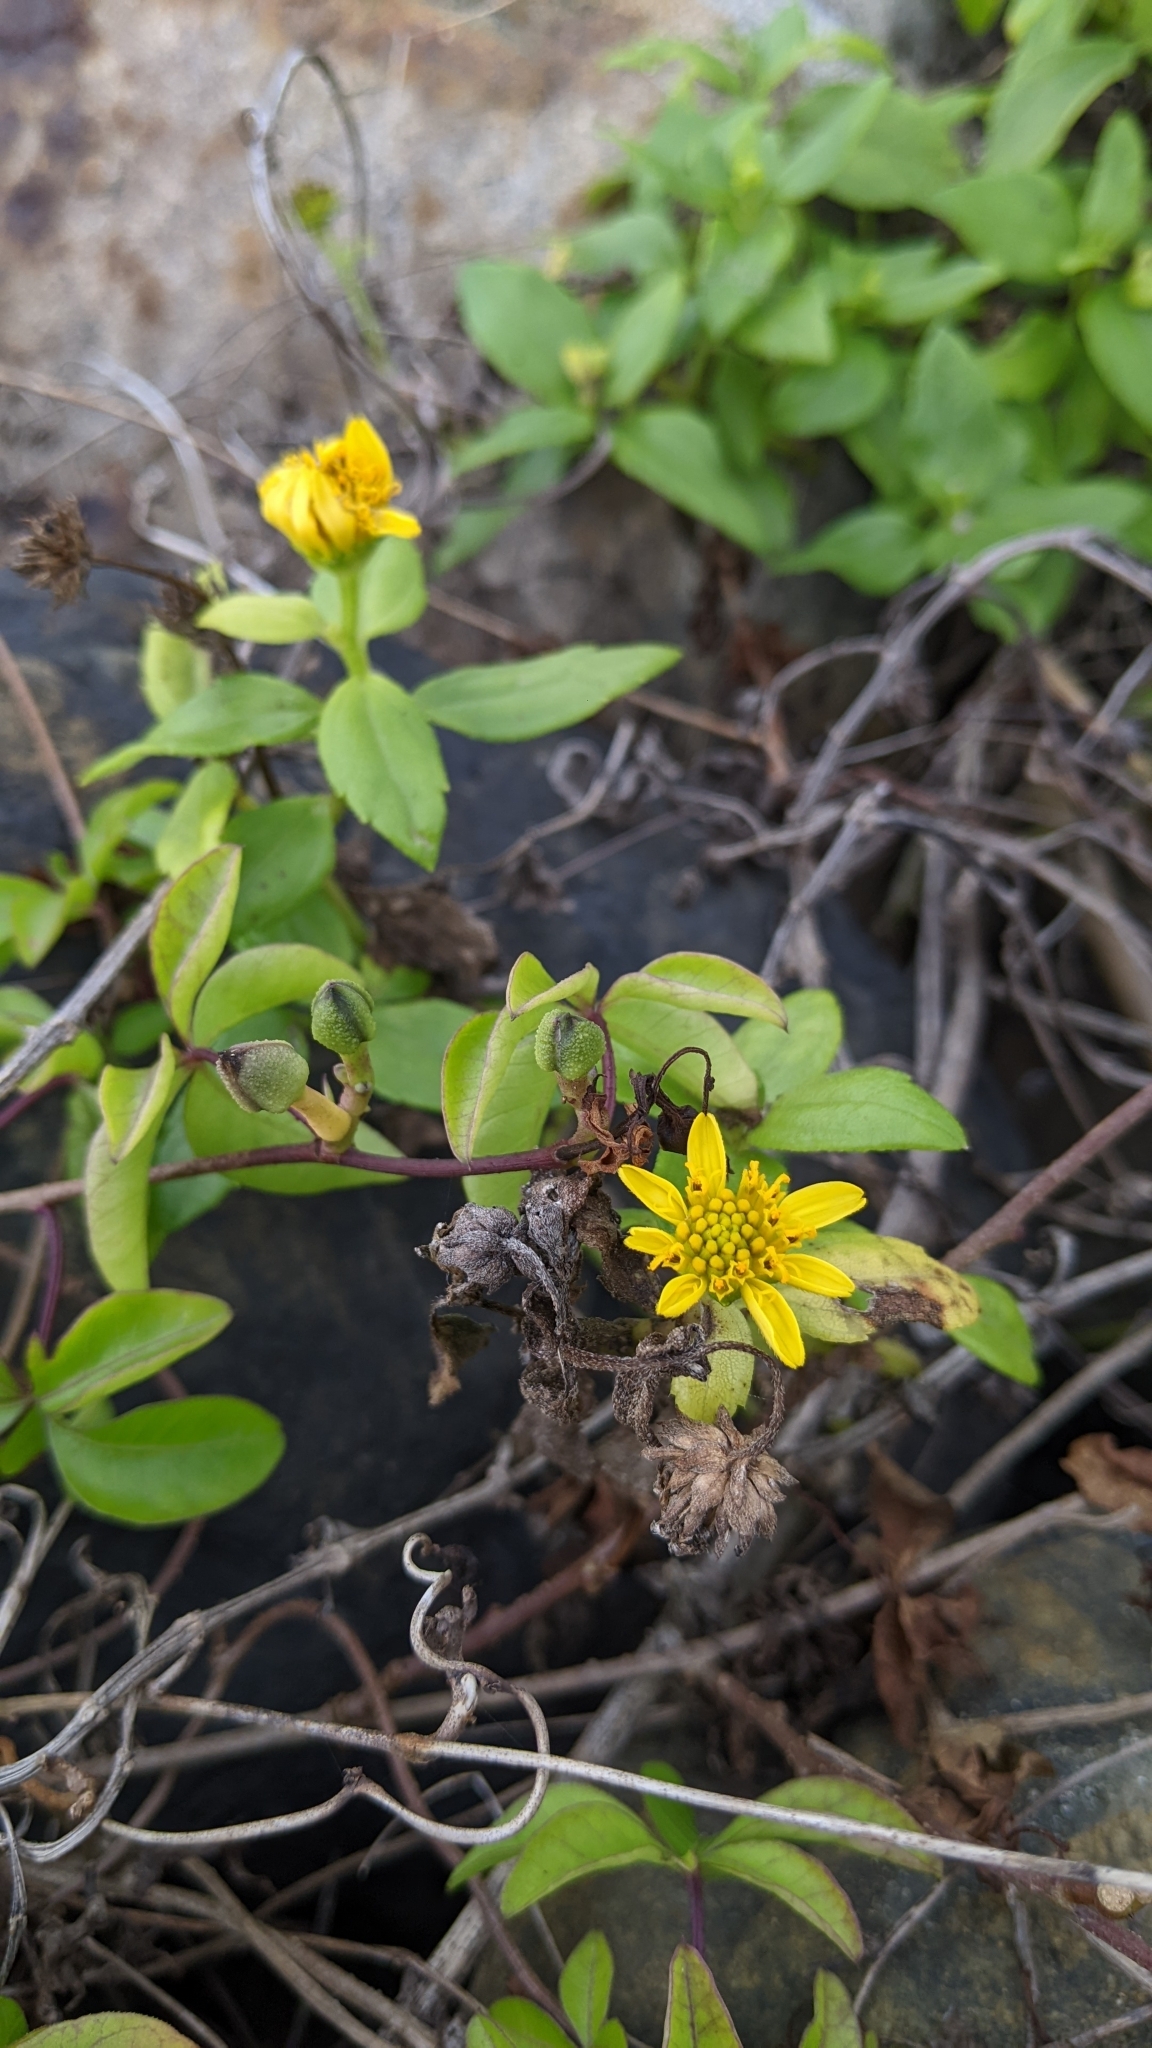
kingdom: Plantae
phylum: Tracheophyta
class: Magnoliopsida
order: Asterales
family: Asteraceae
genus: Melanthera
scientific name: Melanthera prostrata
